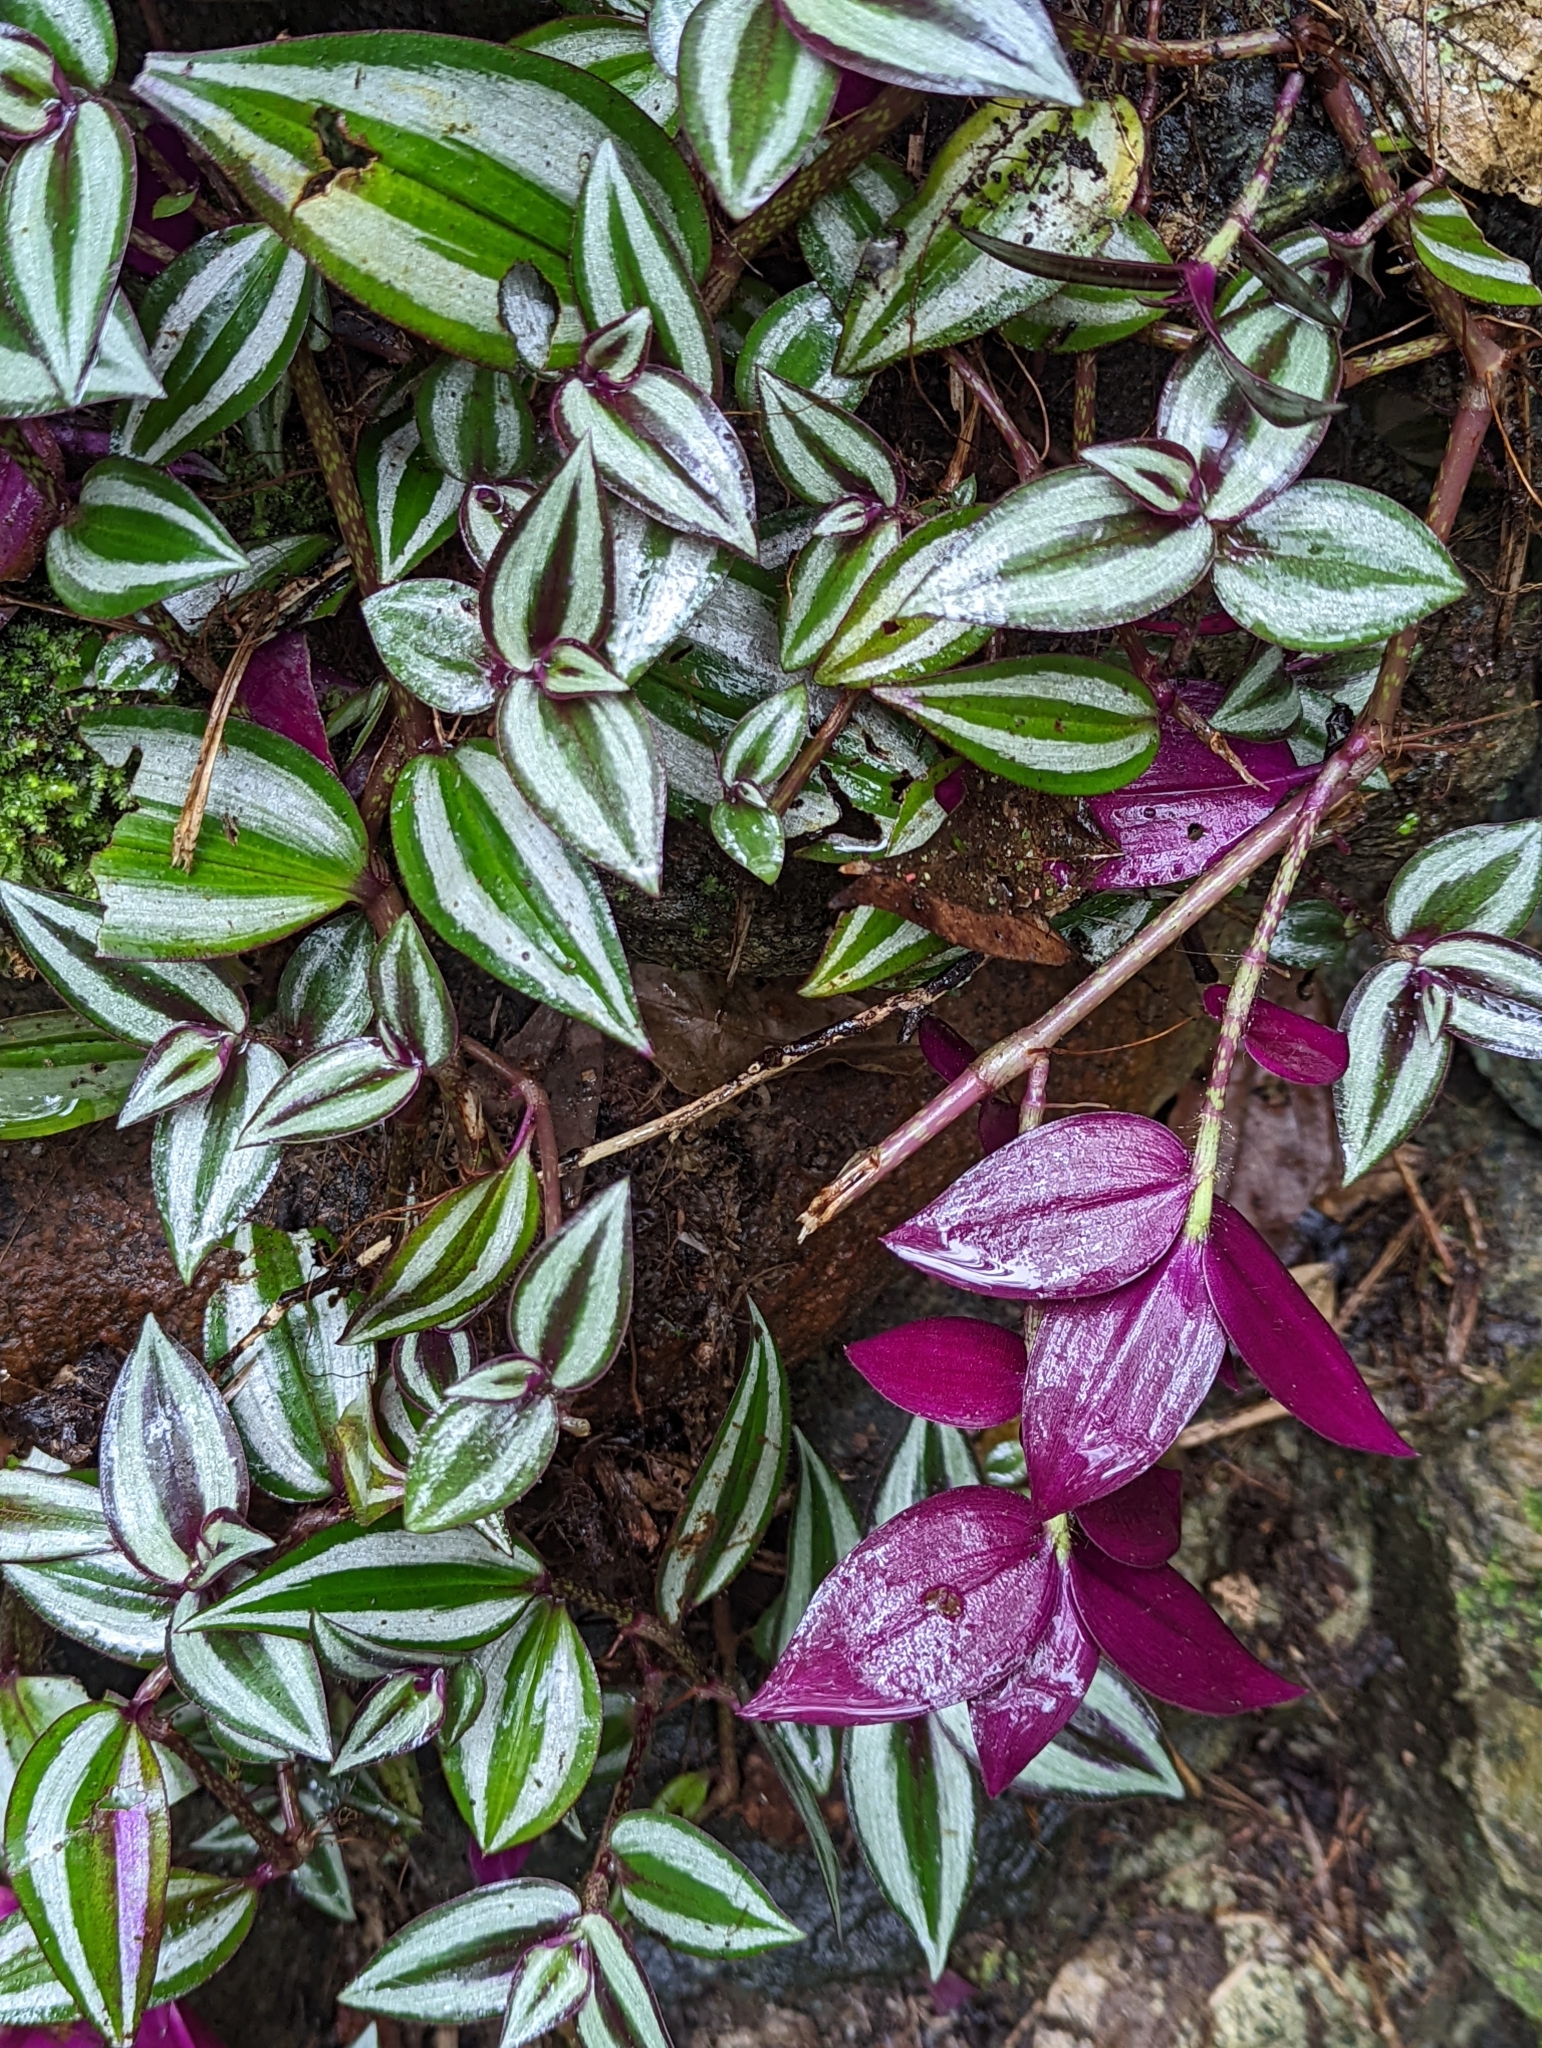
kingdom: Plantae
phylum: Tracheophyta
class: Liliopsida
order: Commelinales
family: Commelinaceae
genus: Tradescantia
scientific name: Tradescantia zebrina
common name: Inchplant
